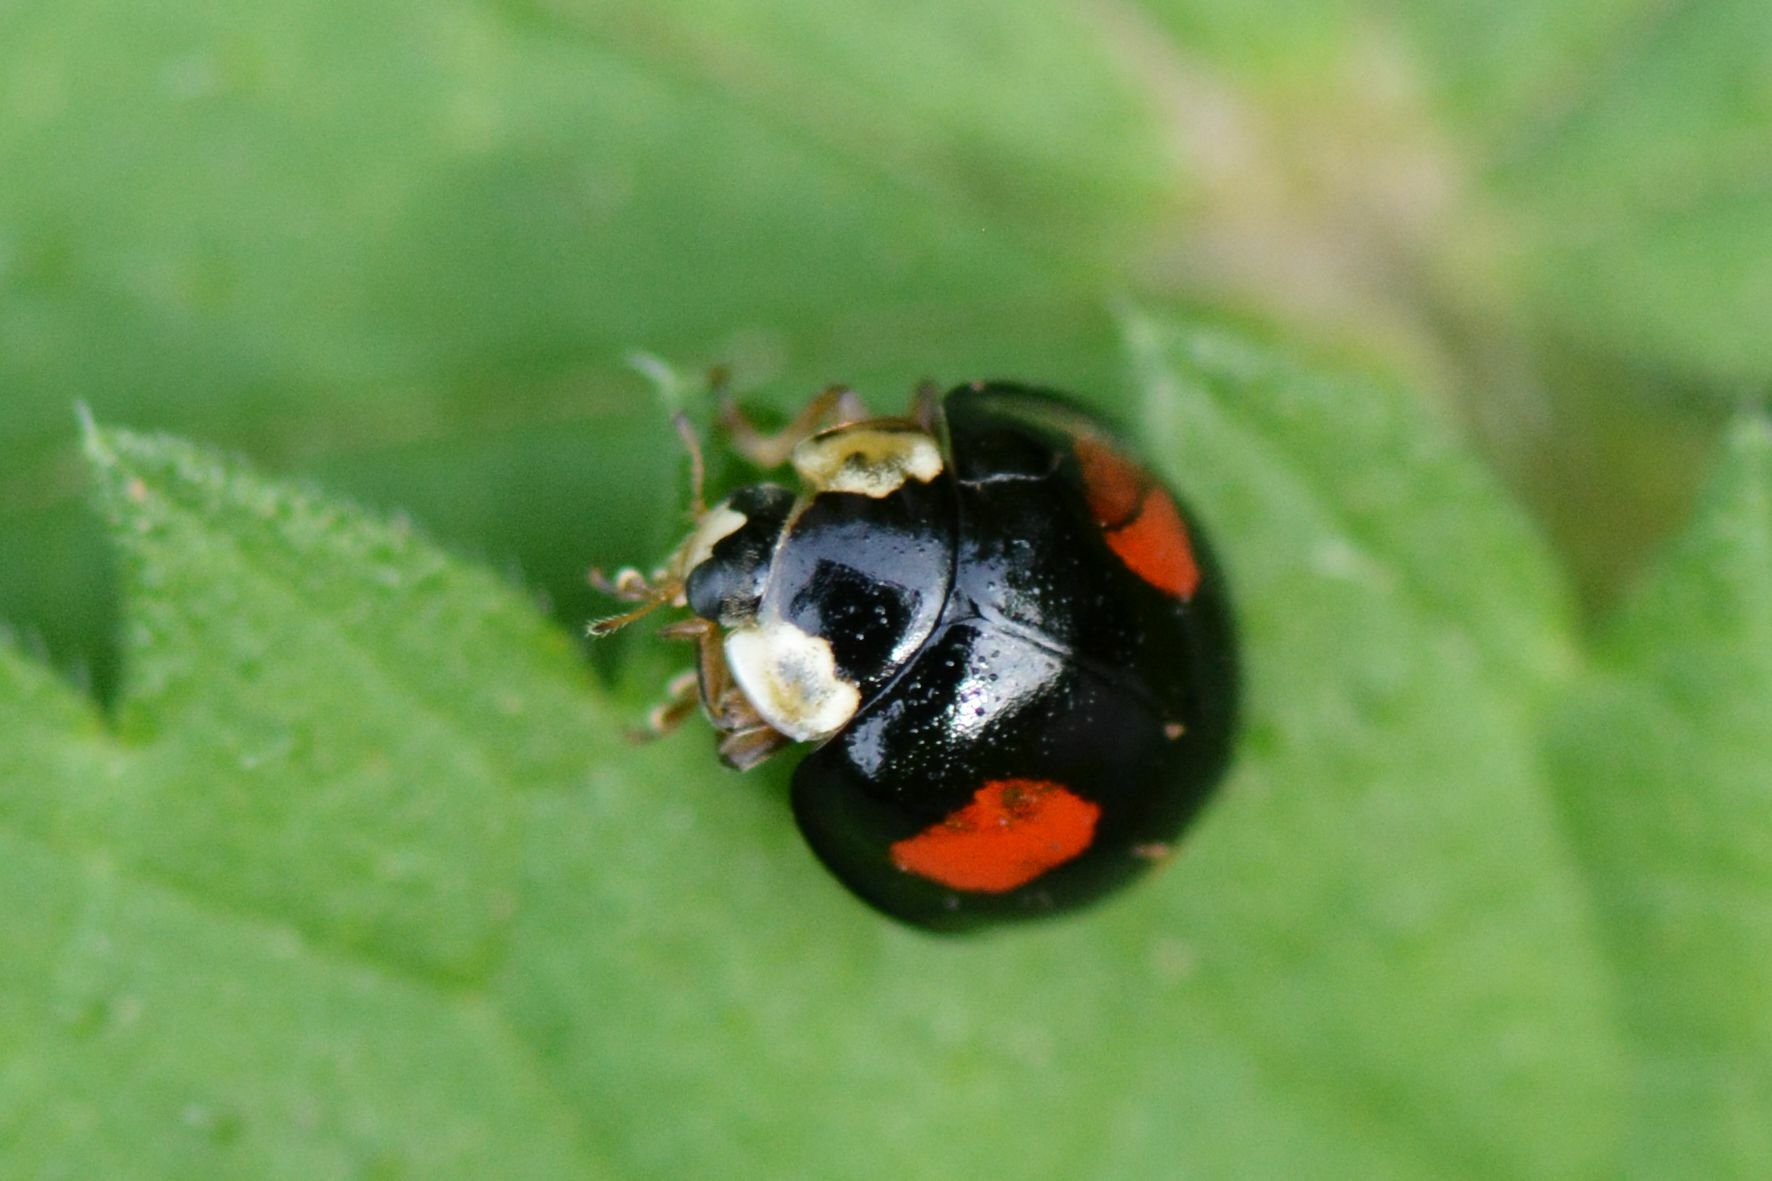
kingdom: Animalia
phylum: Arthropoda
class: Insecta
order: Coleoptera
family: Coccinellidae
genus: Harmonia
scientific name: Harmonia axyridis
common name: Harlequin ladybird
